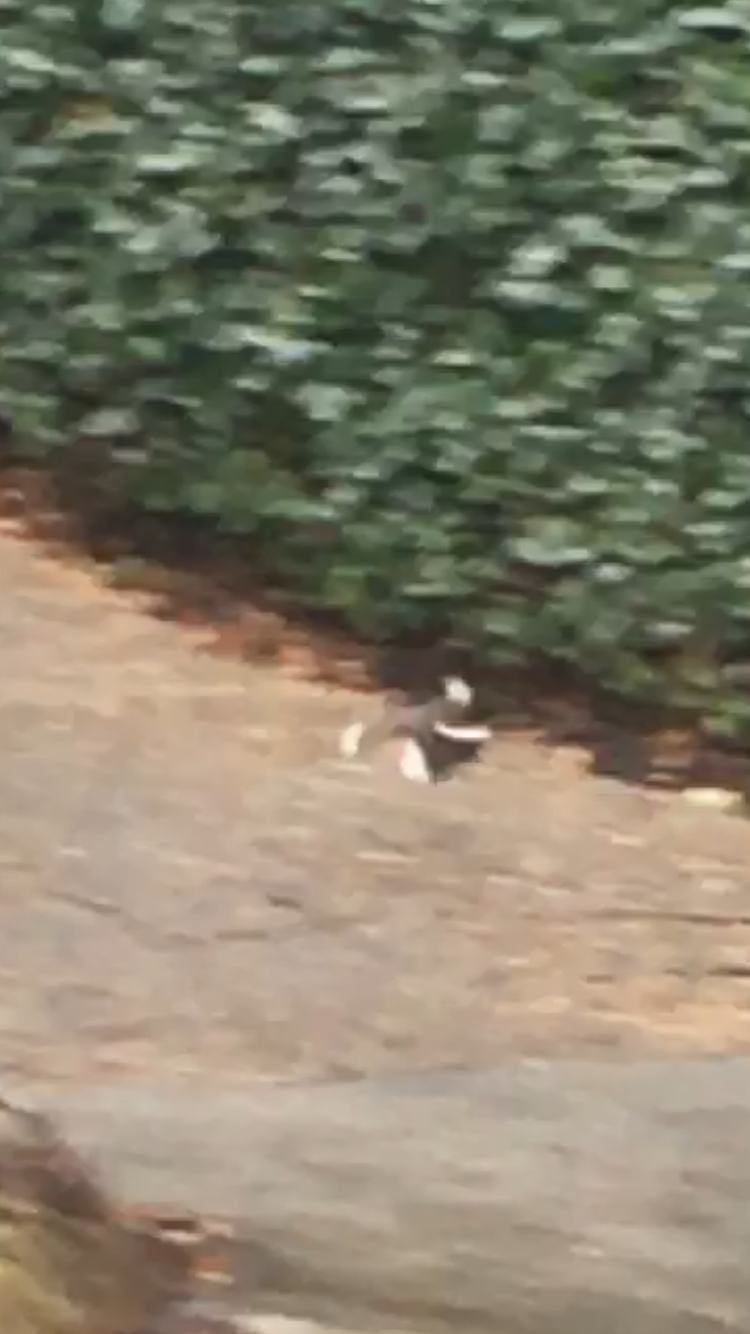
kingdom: Animalia
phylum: Chordata
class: Aves
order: Passeriformes
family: Mimidae
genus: Mimus
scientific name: Mimus polyglottos
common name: Northern mockingbird
